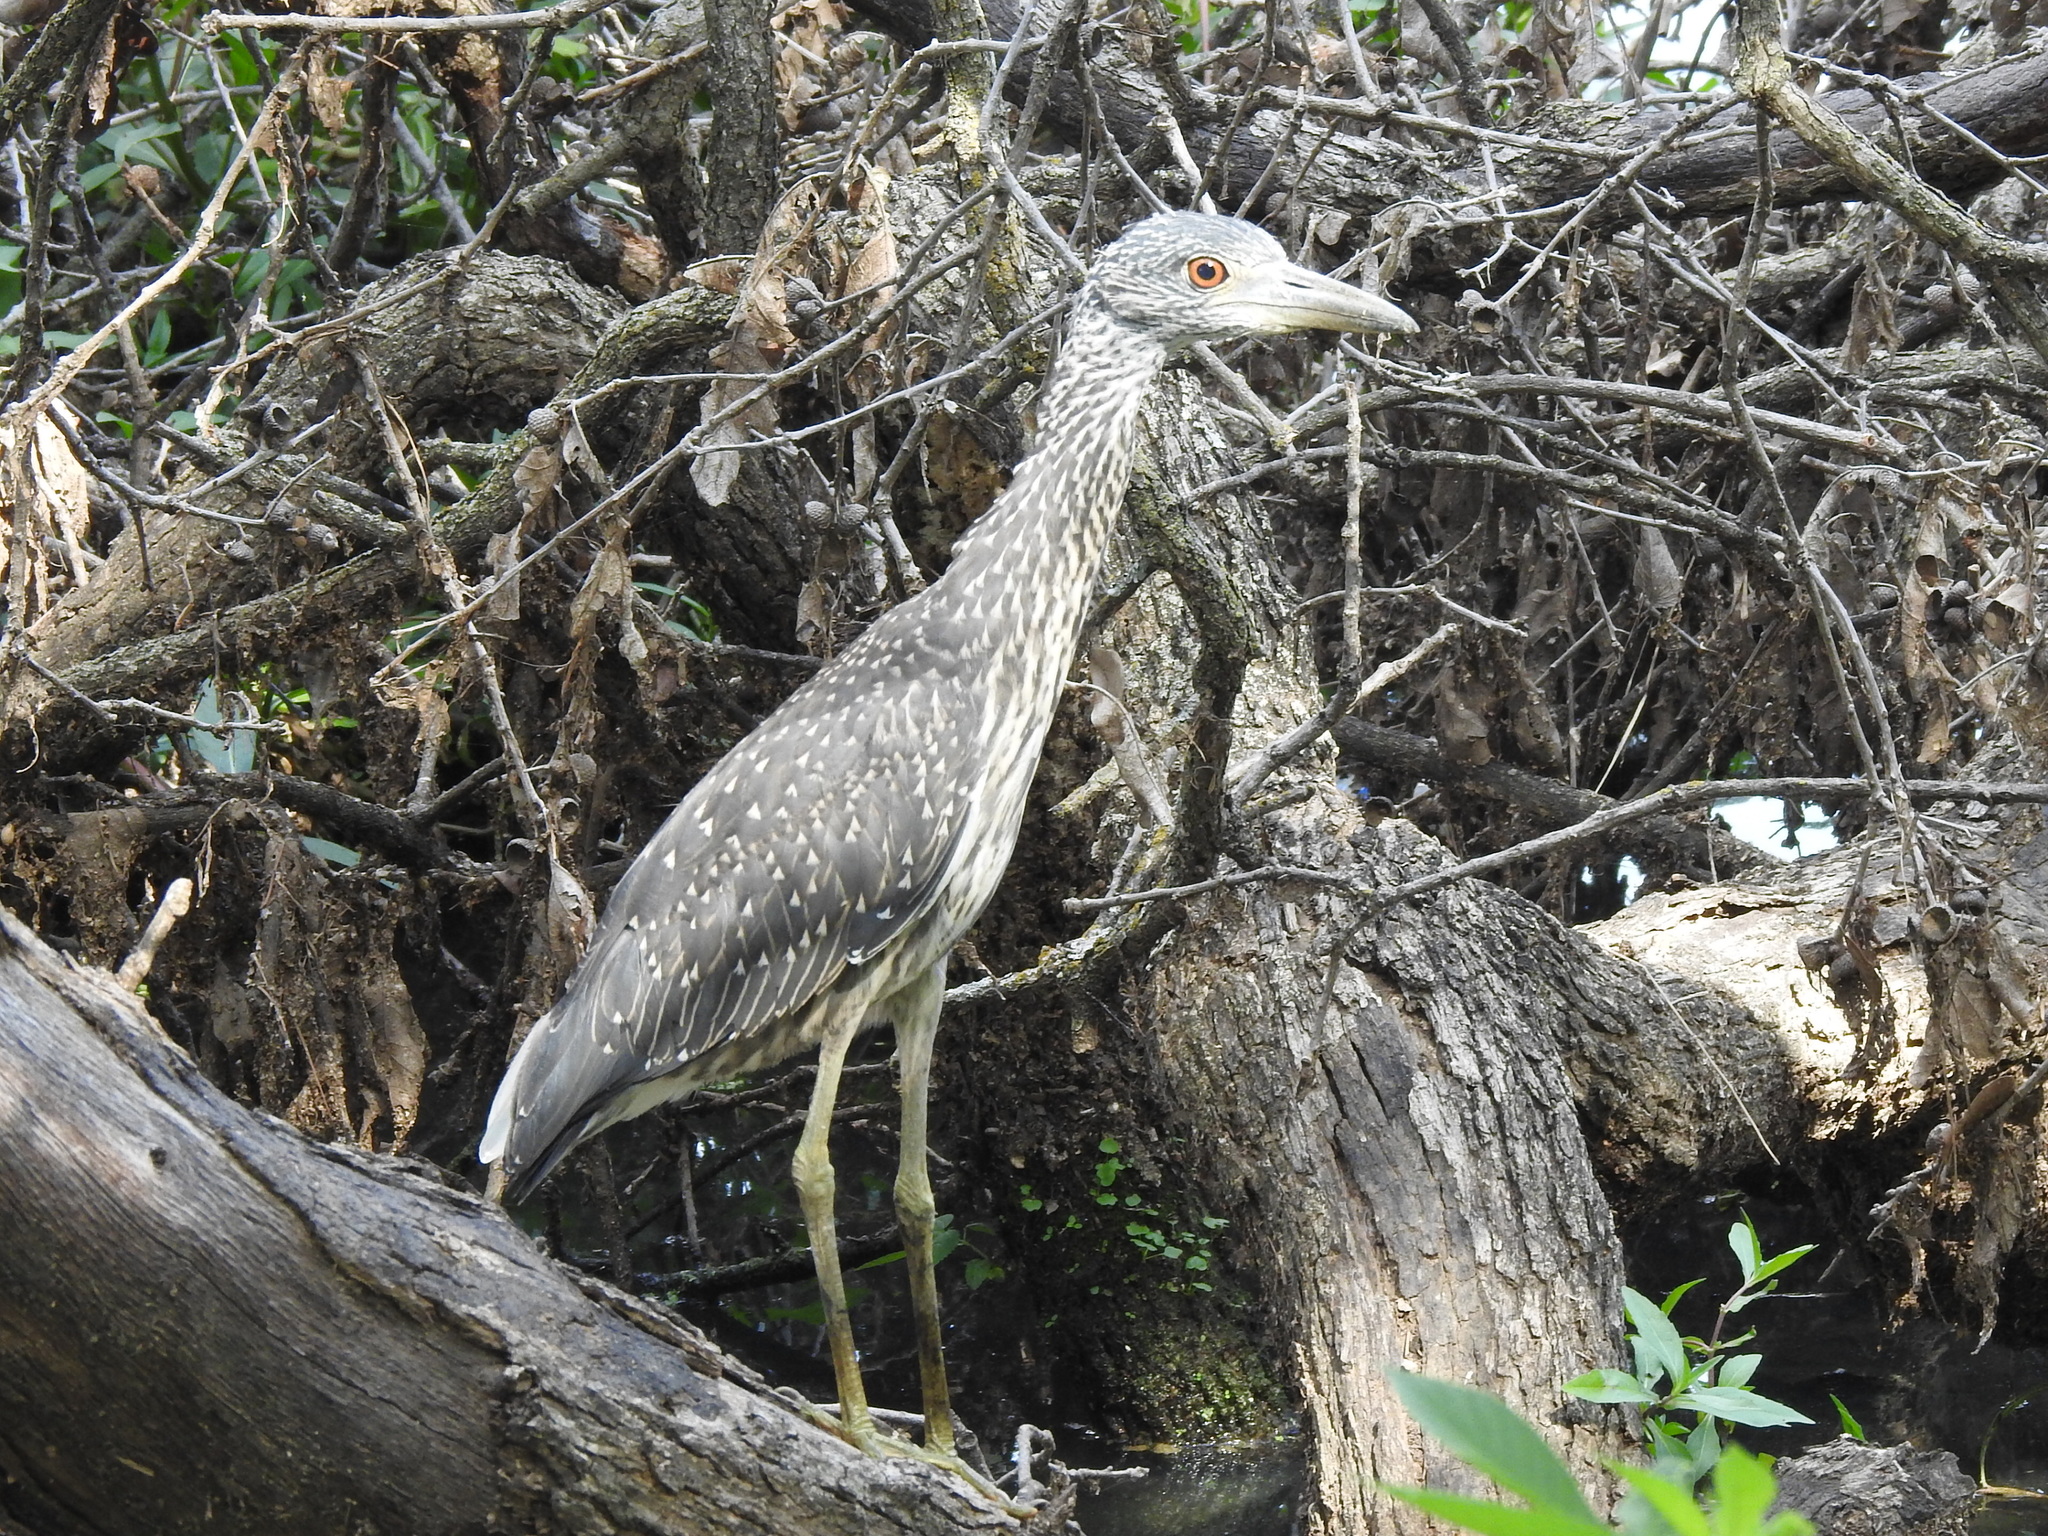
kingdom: Animalia
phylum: Chordata
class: Aves
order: Pelecaniformes
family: Ardeidae
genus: Nyctanassa
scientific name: Nyctanassa violacea
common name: Yellow-crowned night heron
